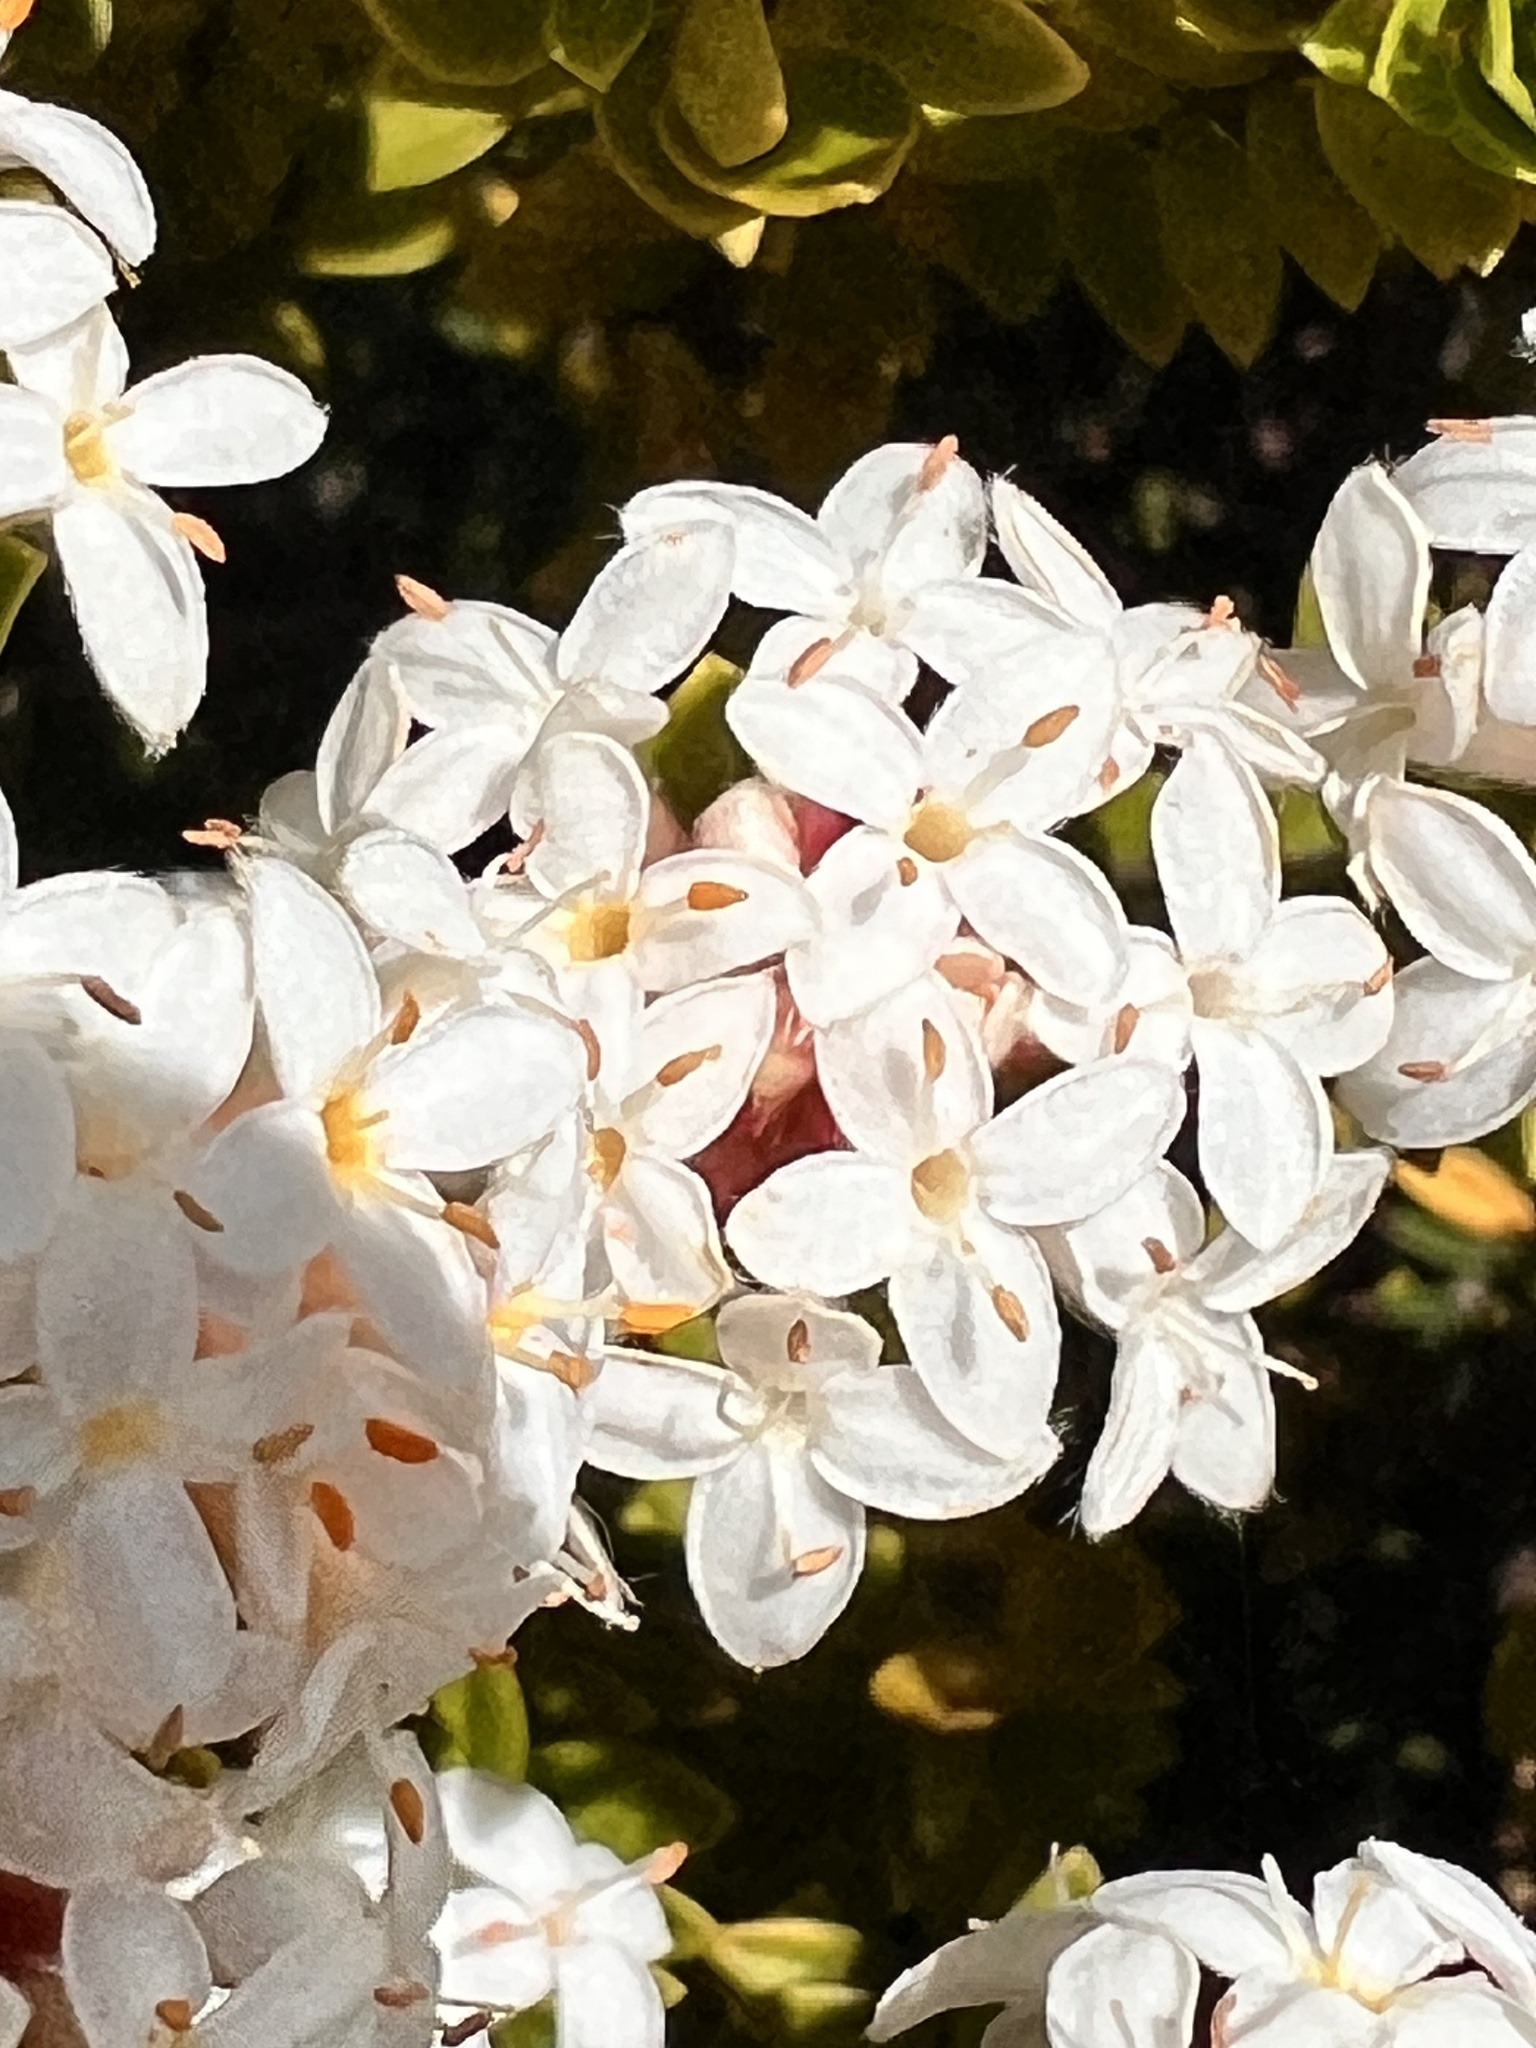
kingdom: Plantae
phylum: Tracheophyta
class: Magnoliopsida
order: Malvales
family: Thymelaeaceae
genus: Pimelea
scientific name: Pimelea buxifolia
